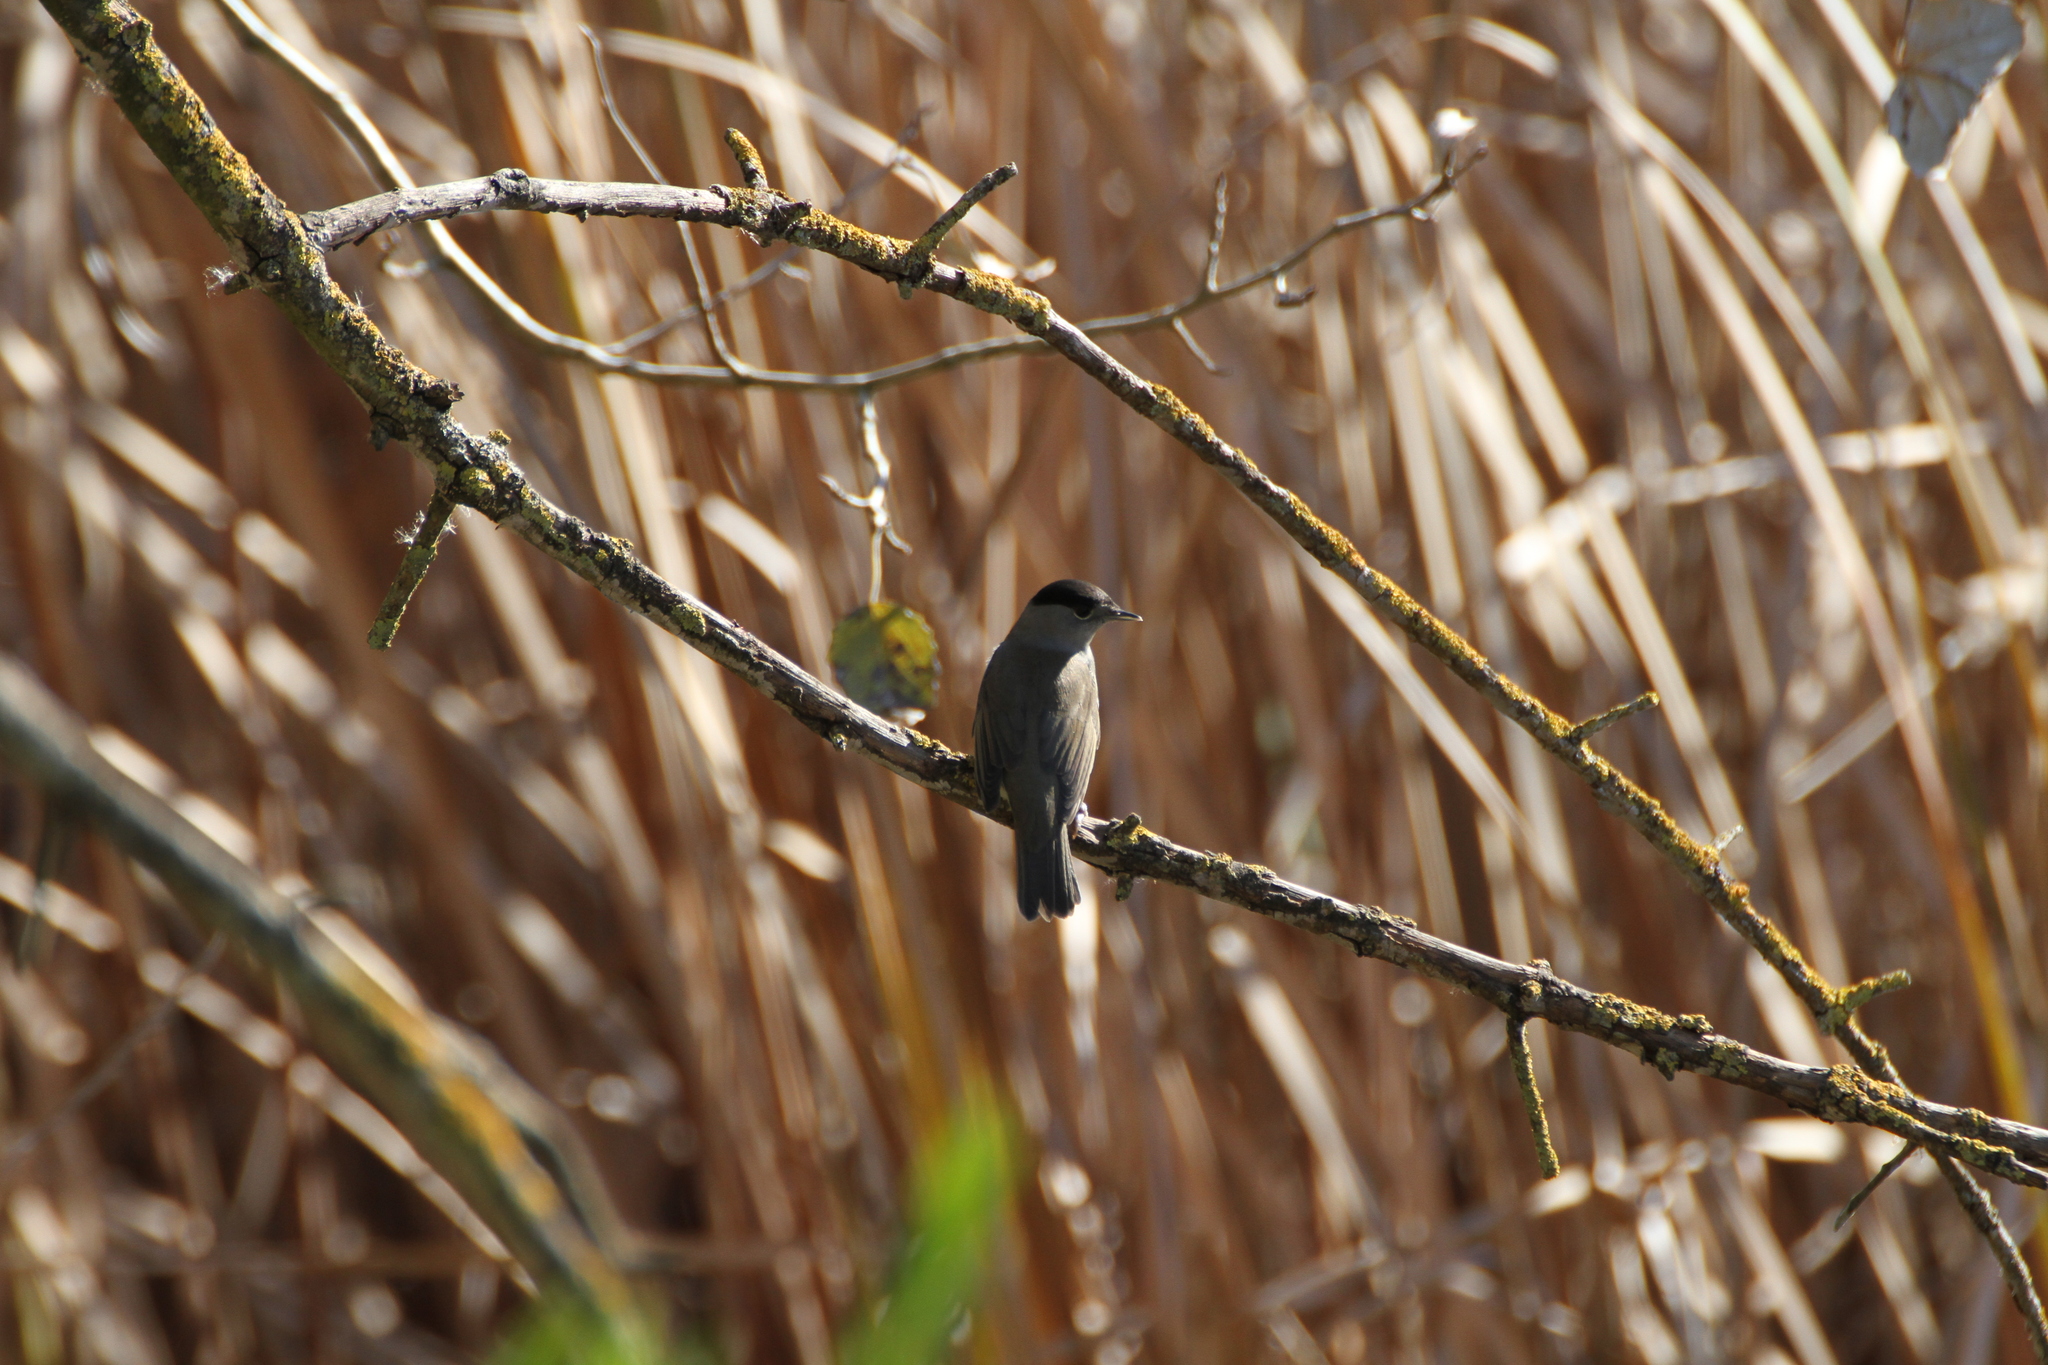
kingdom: Animalia
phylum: Chordata
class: Aves
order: Passeriformes
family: Sylviidae
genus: Sylvia
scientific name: Sylvia atricapilla
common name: Eurasian blackcap
